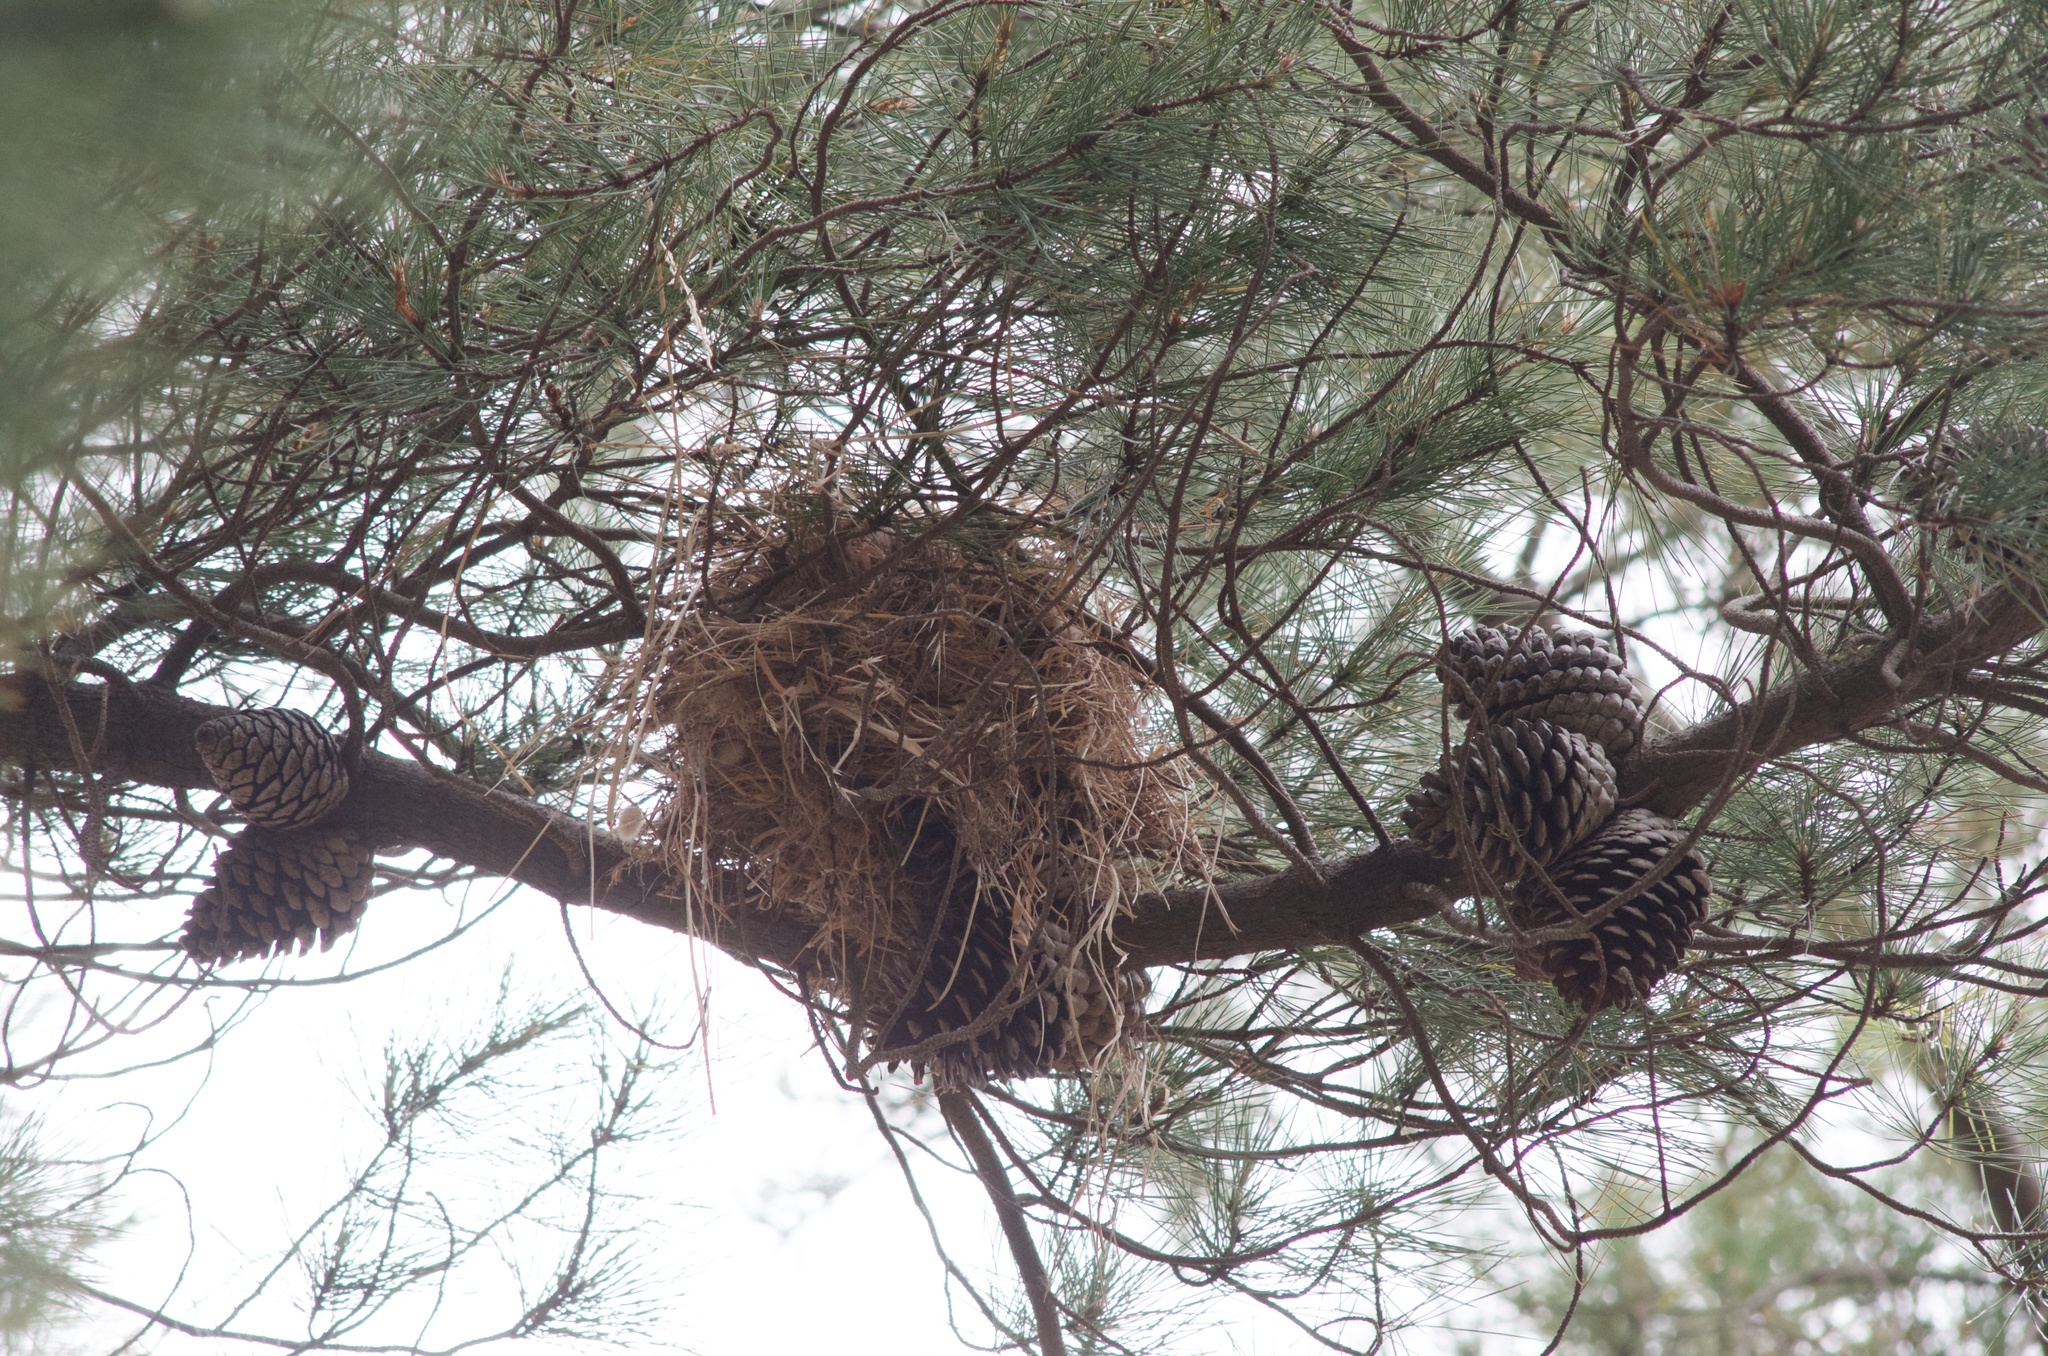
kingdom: Animalia
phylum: Chordata
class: Aves
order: Passeriformes
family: Passeridae
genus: Passer
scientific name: Passer domesticus
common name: House sparrow
